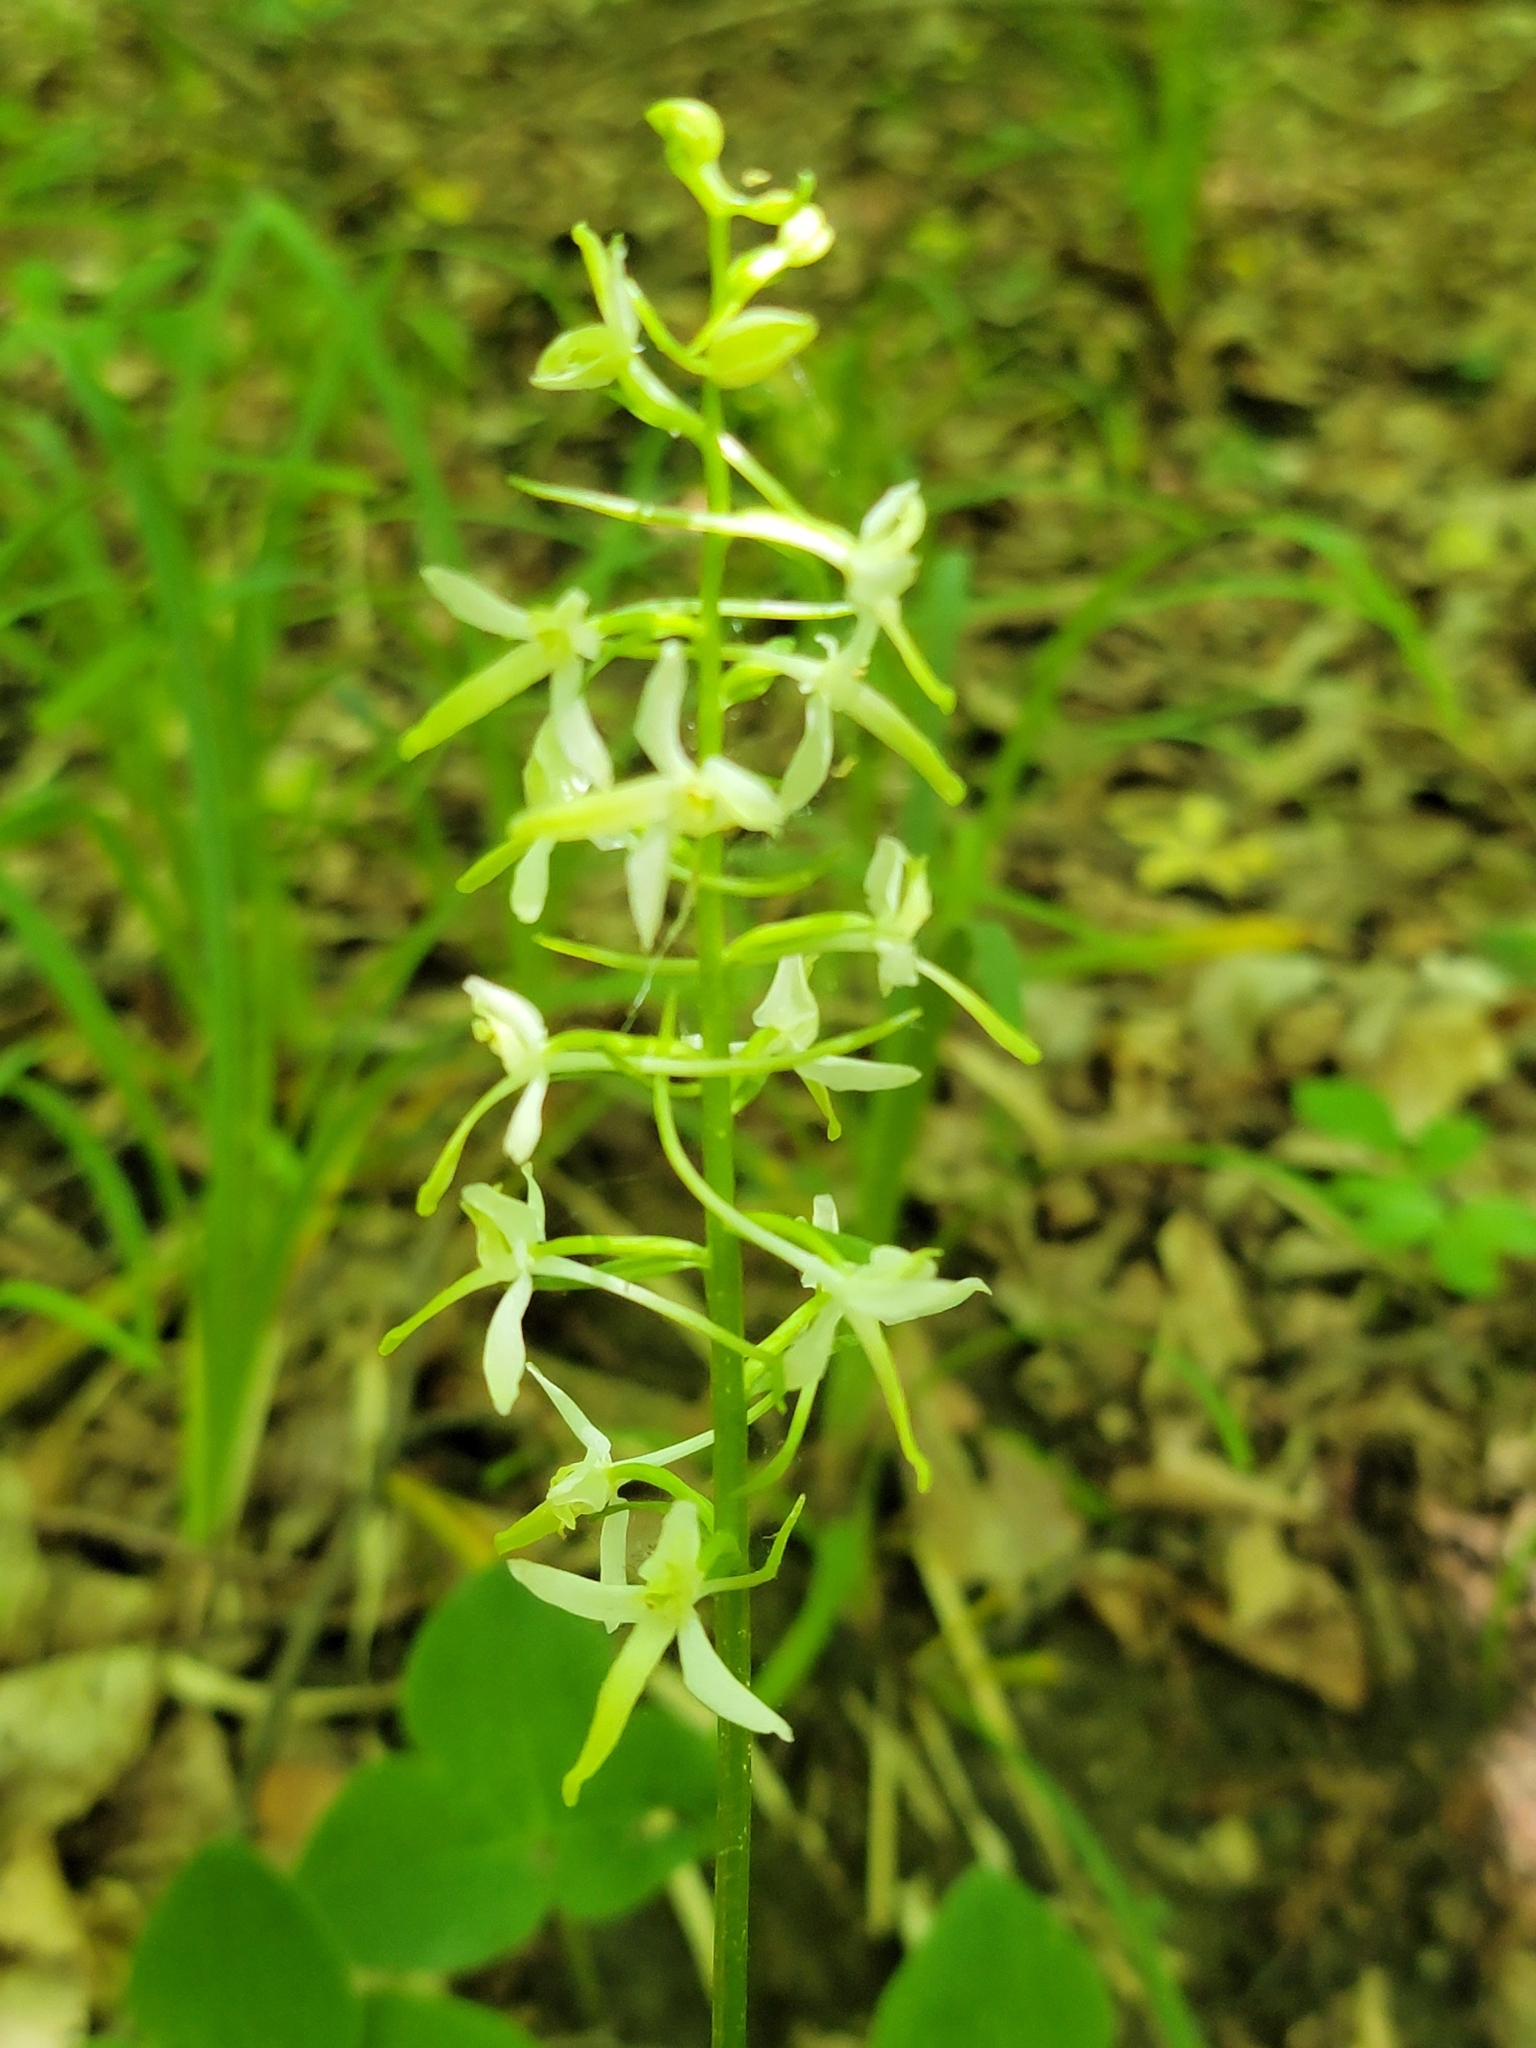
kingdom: Plantae
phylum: Tracheophyta
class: Liliopsida
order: Asparagales
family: Orchidaceae
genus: Platanthera
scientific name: Platanthera bifolia
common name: Lesser butterfly-orchid
